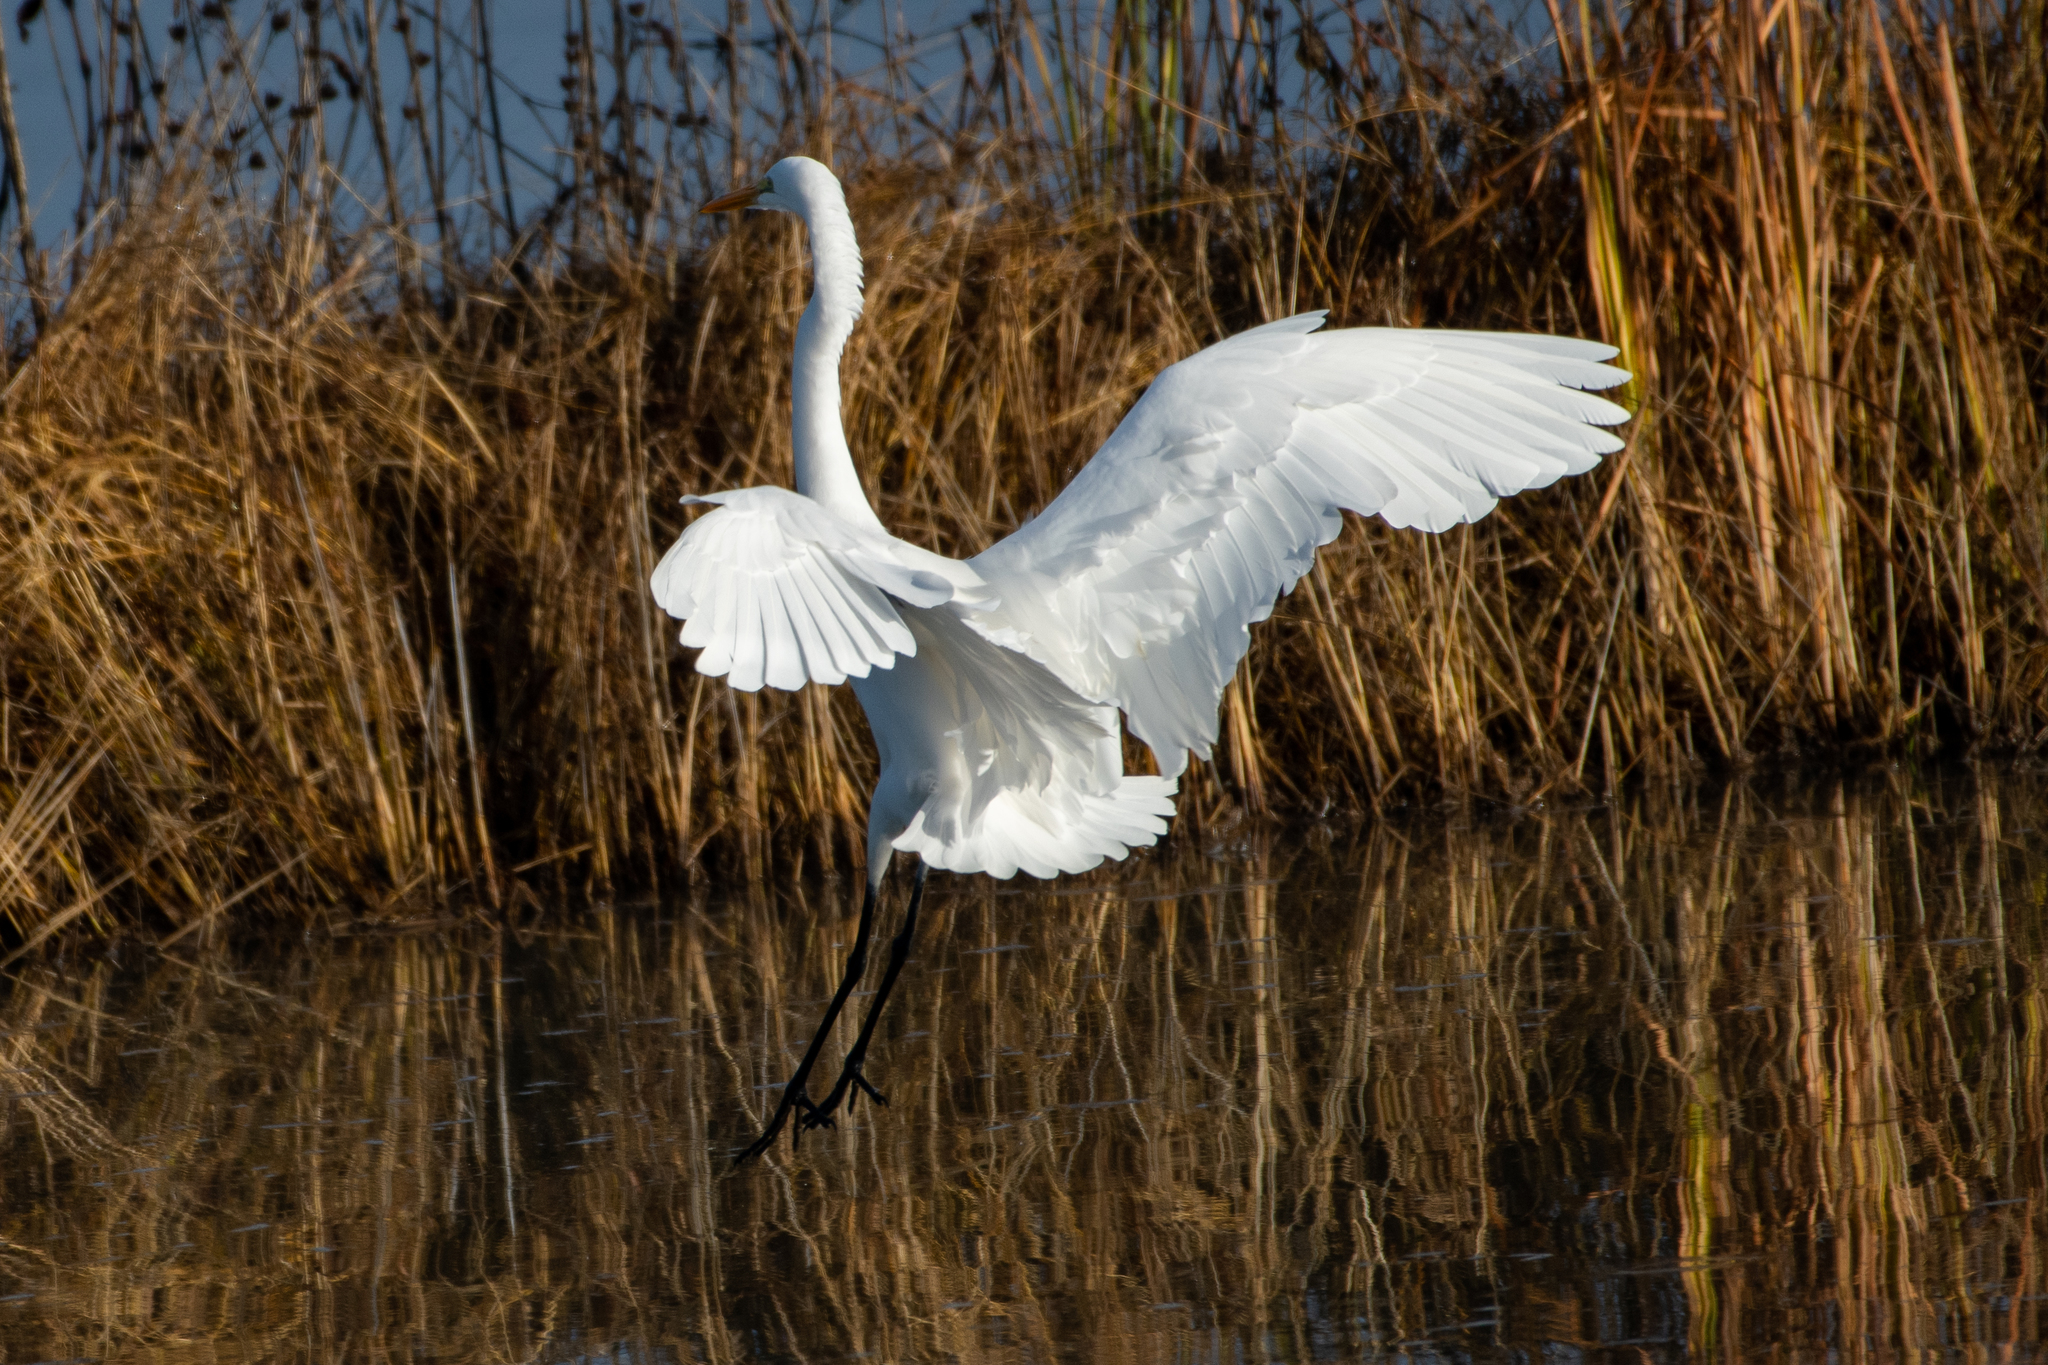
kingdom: Animalia
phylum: Chordata
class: Aves
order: Pelecaniformes
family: Ardeidae
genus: Ardea
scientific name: Ardea alba
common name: Great egret
